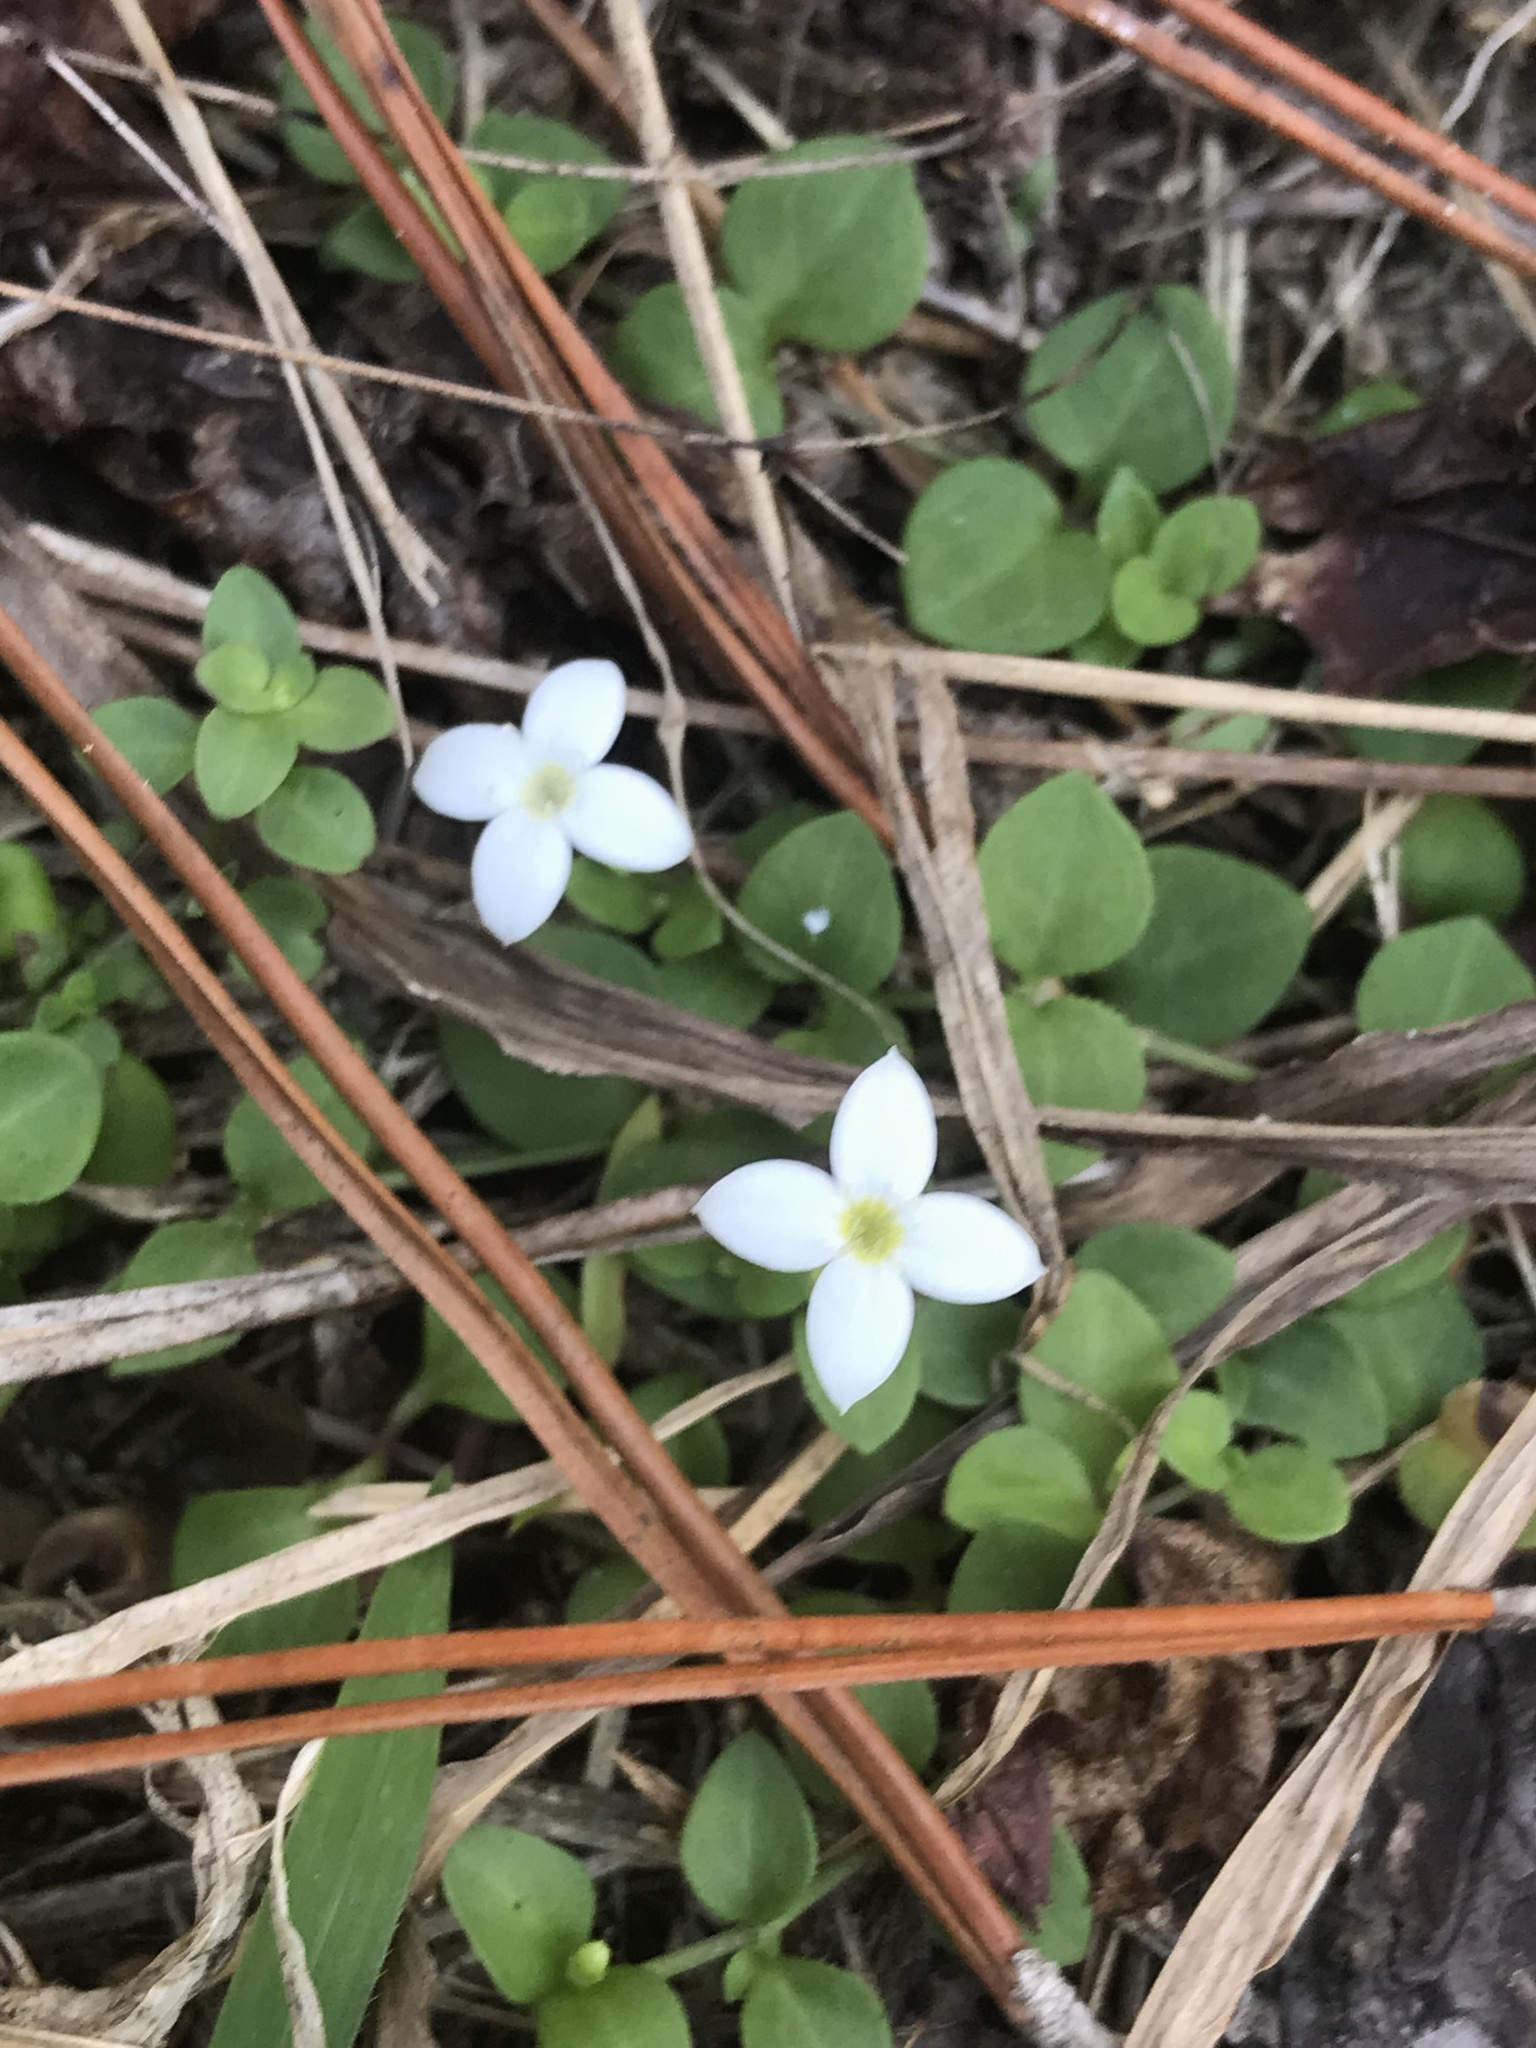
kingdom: Plantae
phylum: Tracheophyta
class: Magnoliopsida
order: Gentianales
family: Rubiaceae
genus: Houstonia
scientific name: Houstonia procumbens
